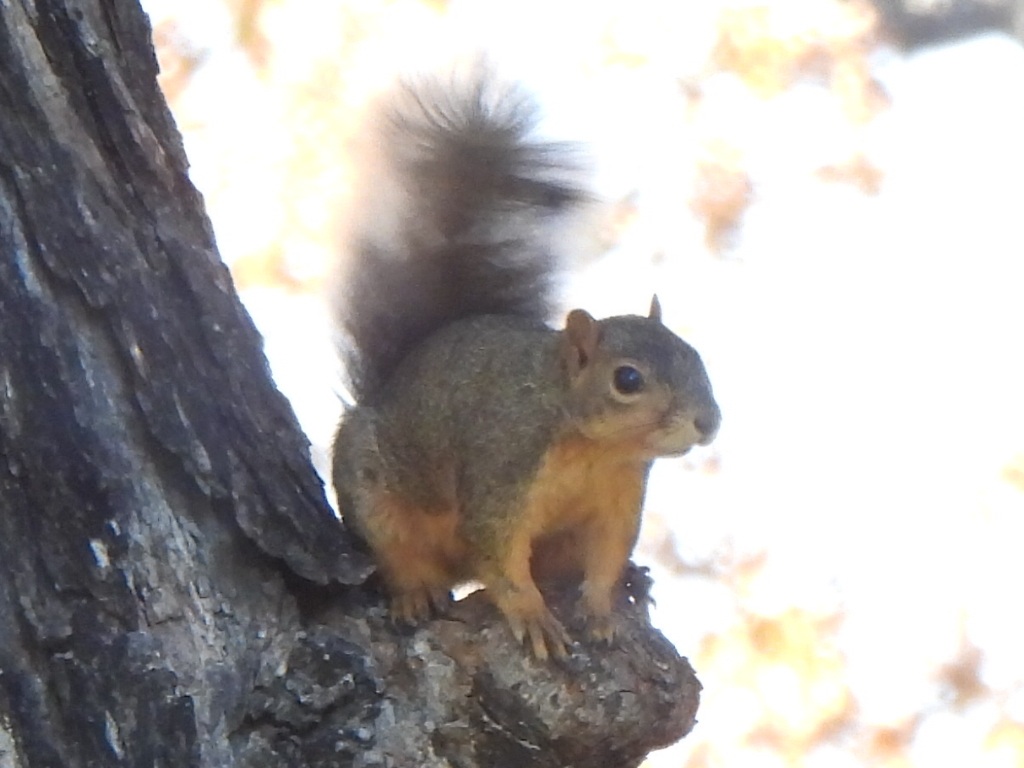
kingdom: Animalia
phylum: Chordata
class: Mammalia
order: Rodentia
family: Sciuridae
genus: Sciurus
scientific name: Sciurus niger
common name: Fox squirrel
